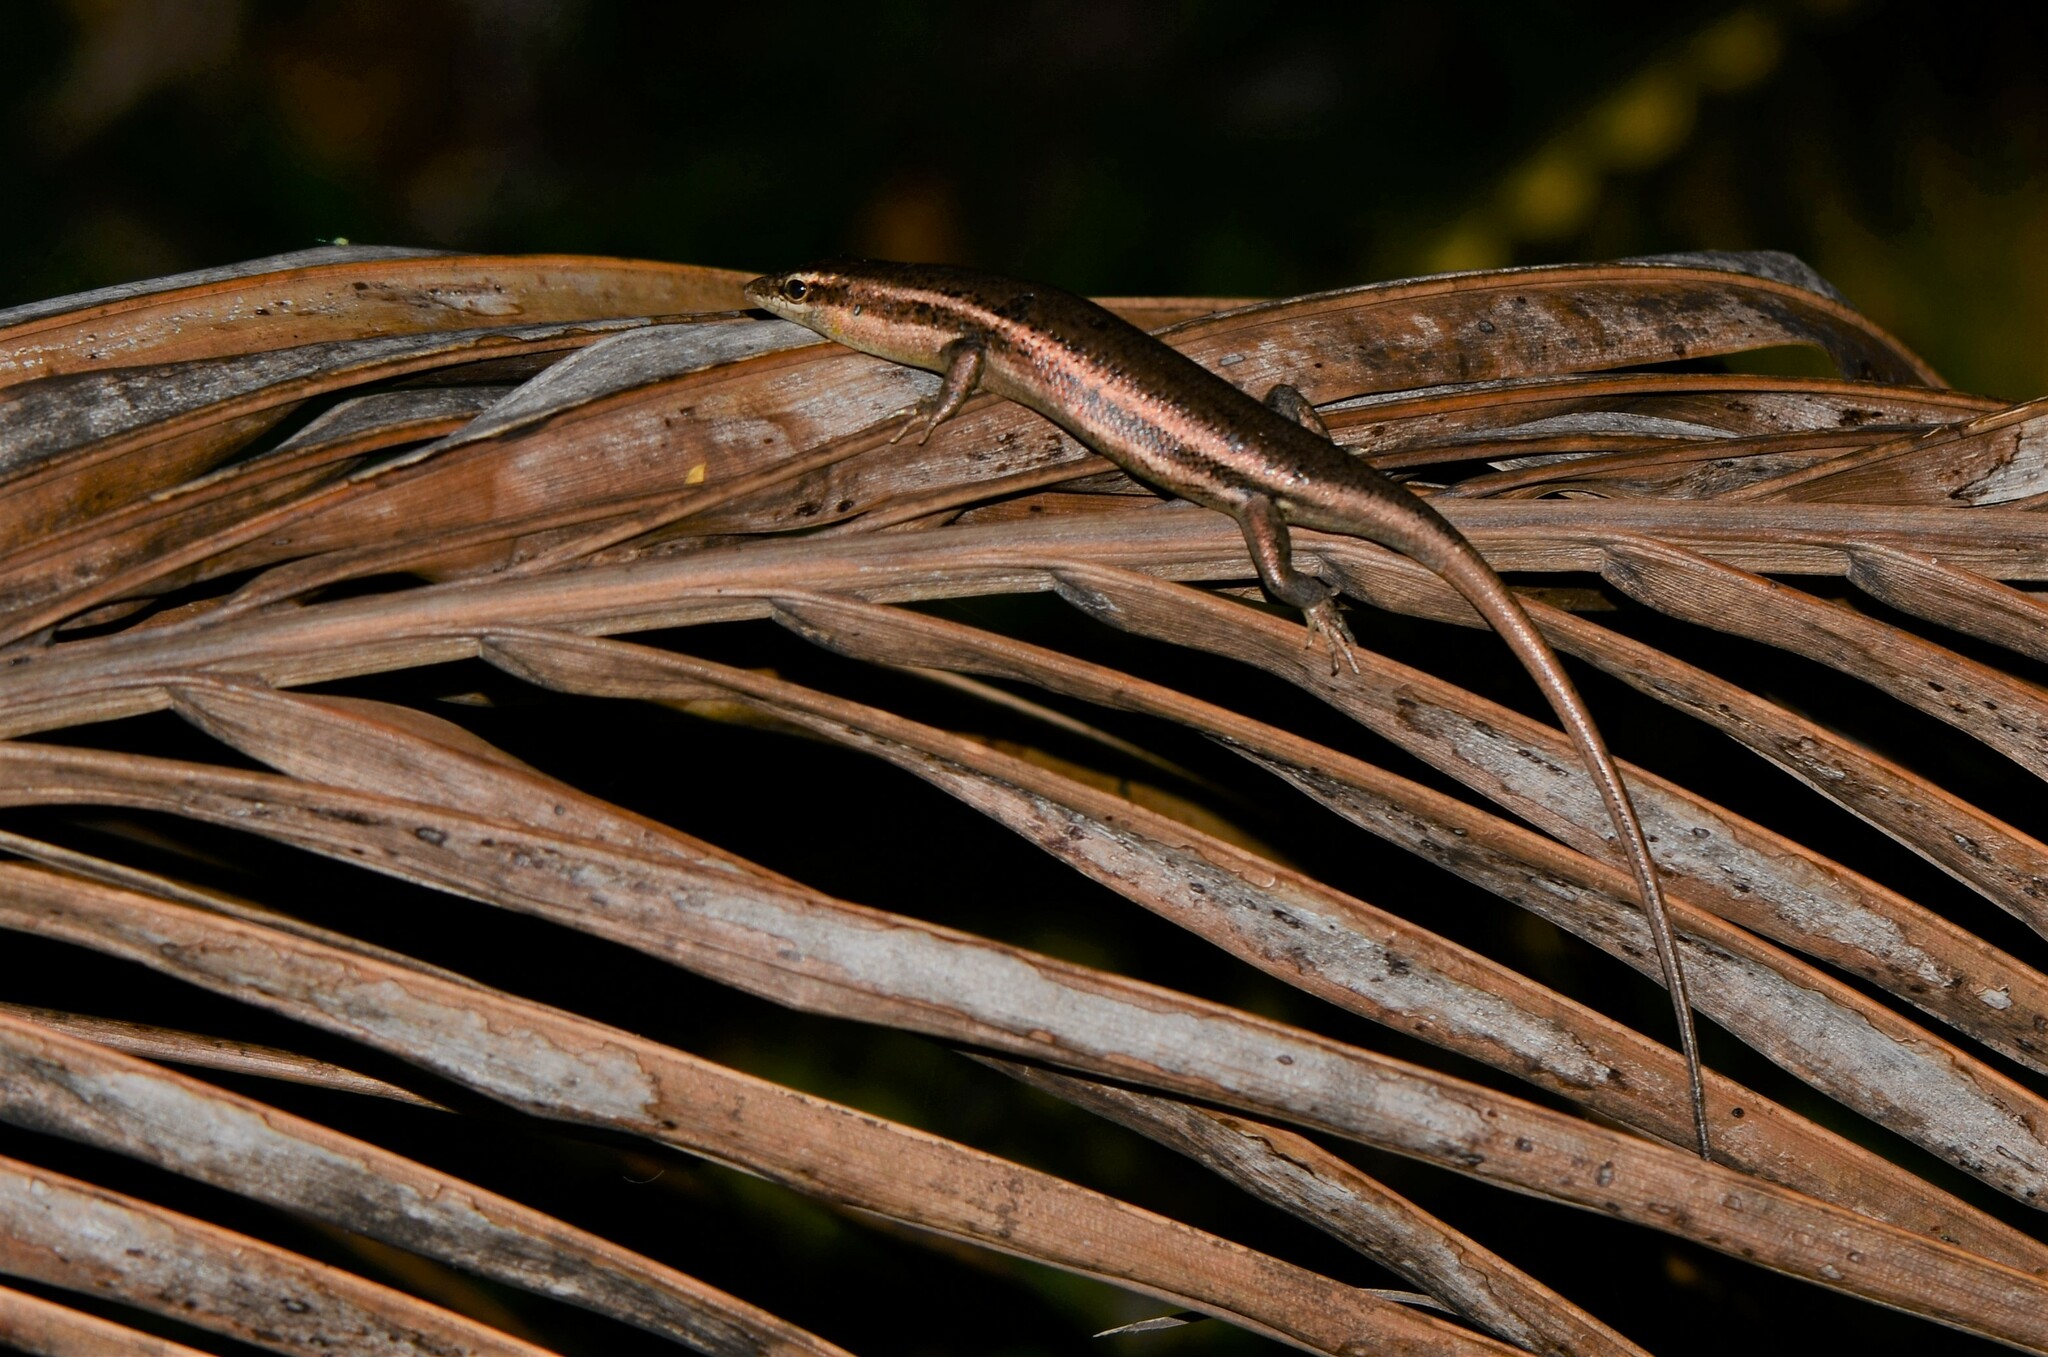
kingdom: Animalia
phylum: Chordata
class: Squamata
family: Scincidae
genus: Trachylepis
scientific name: Trachylepis sechellensis
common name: Seychelles skink
